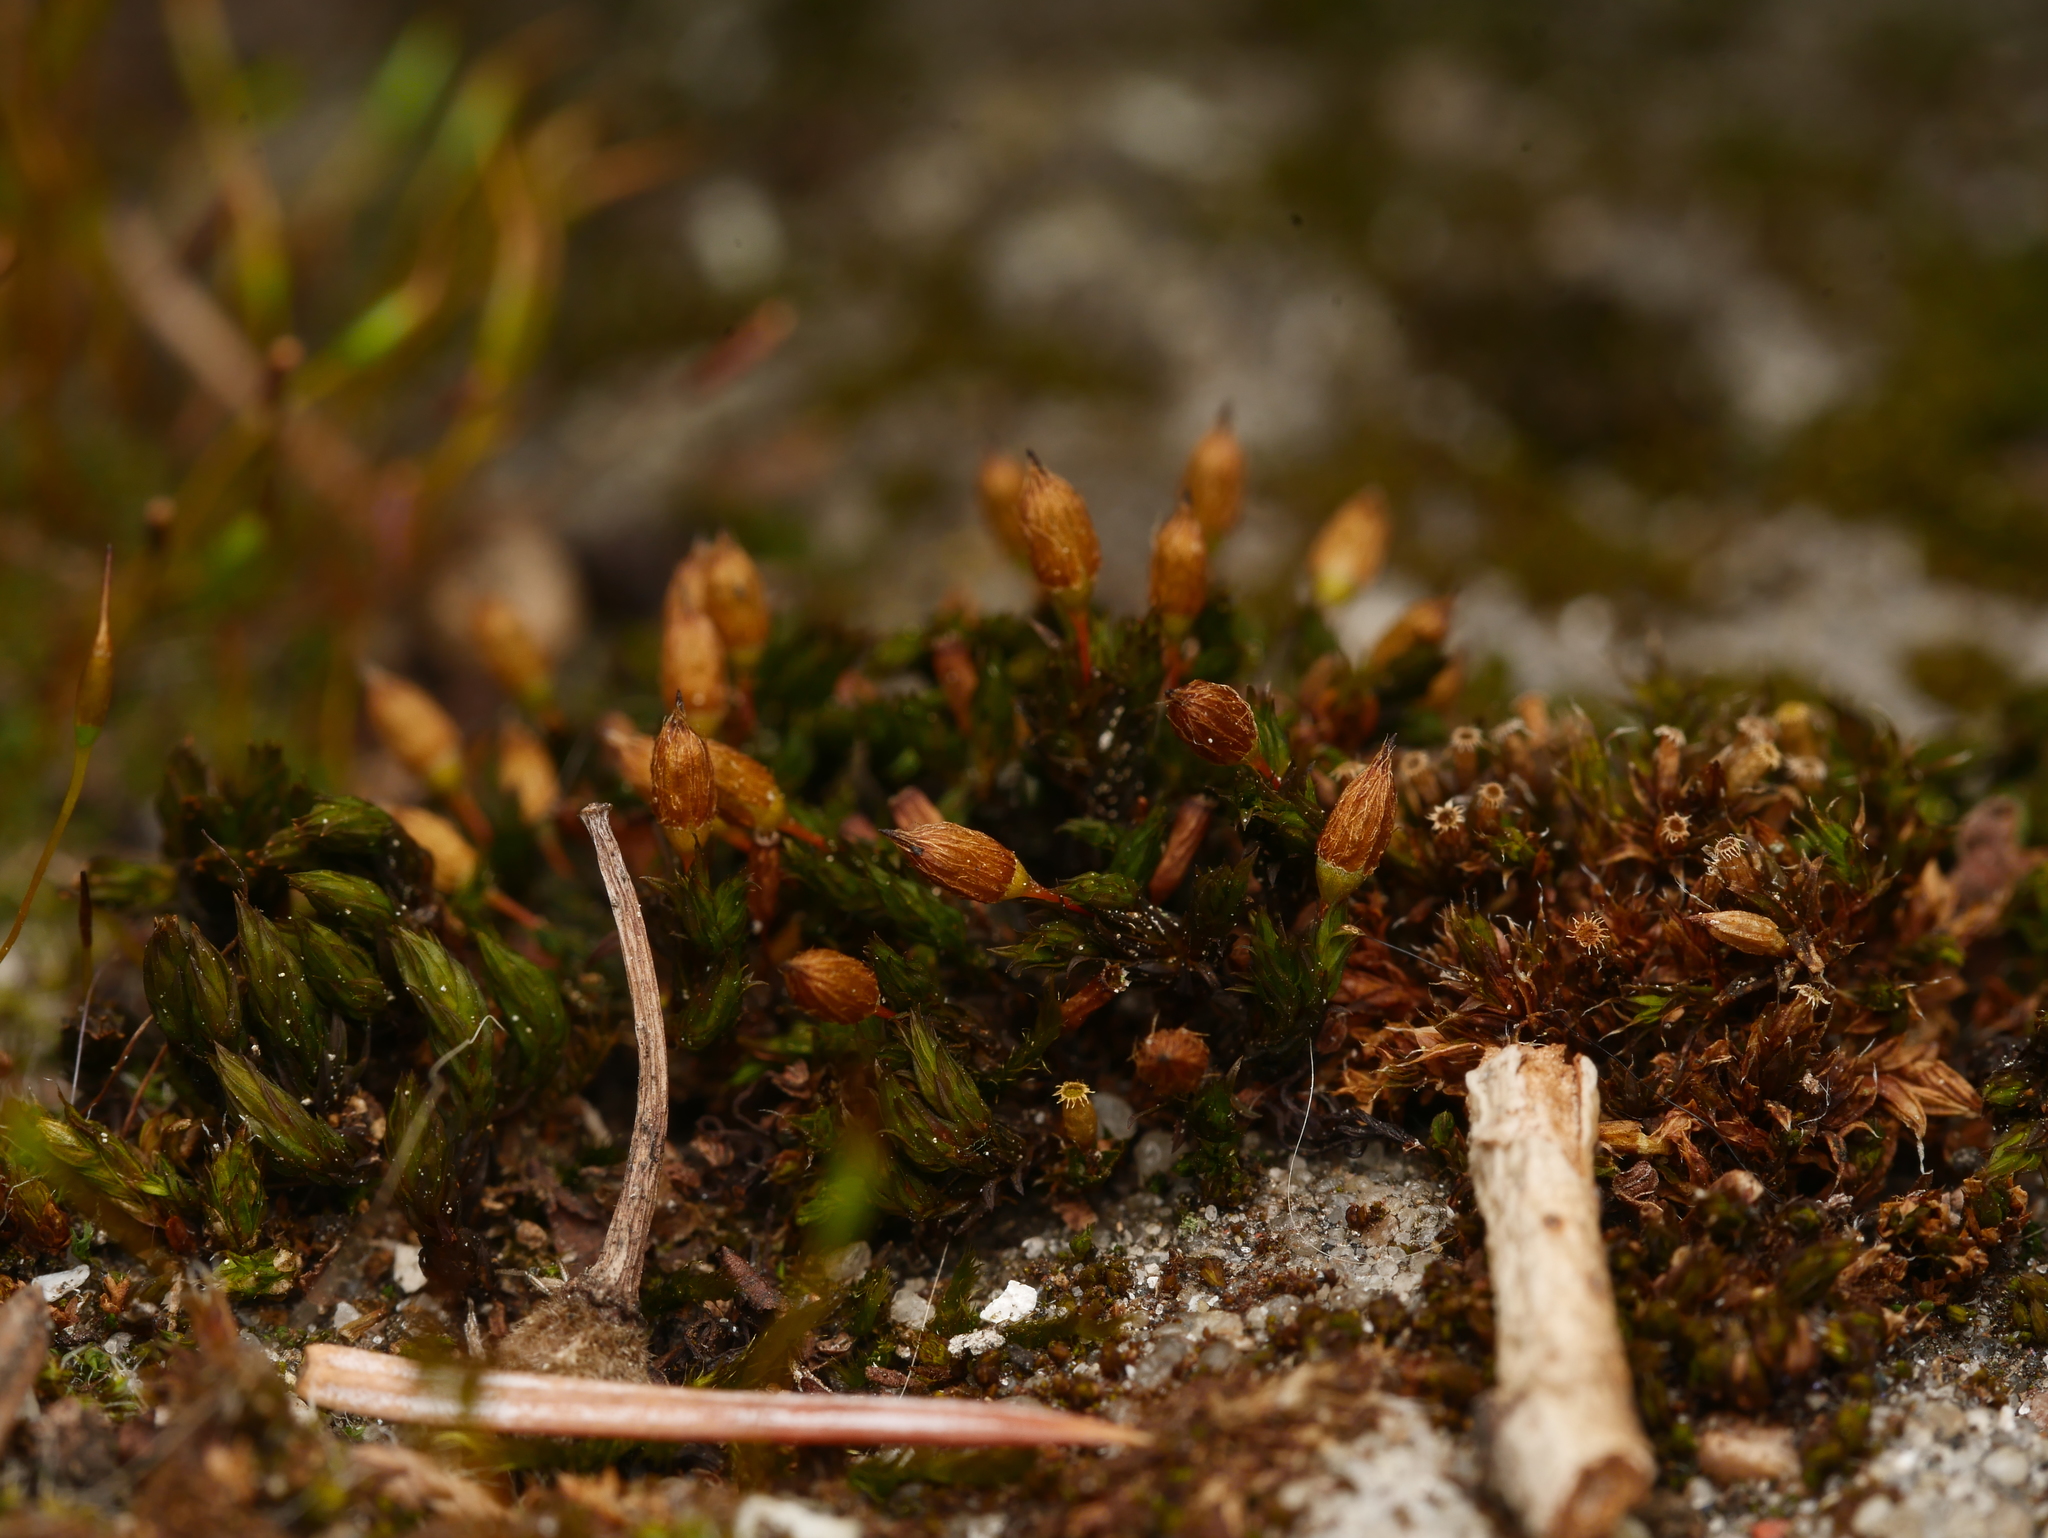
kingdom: Plantae
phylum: Bryophyta
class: Bryopsida
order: Orthotrichales
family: Orthotrichaceae
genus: Orthotrichum
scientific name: Orthotrichum anomalum
